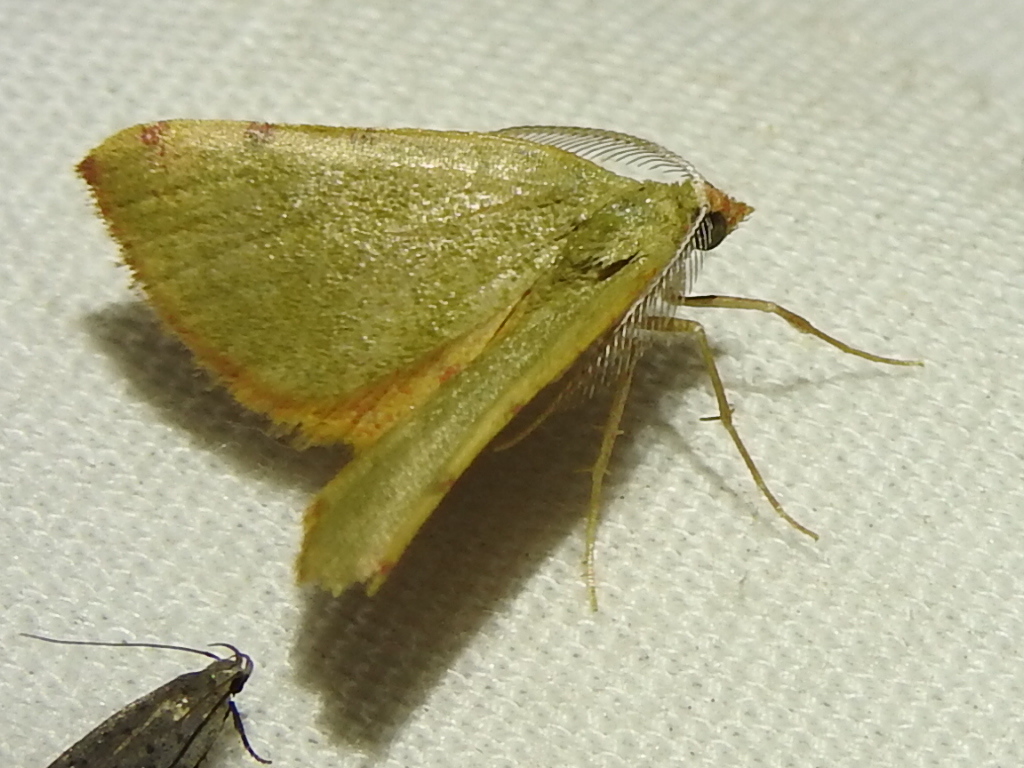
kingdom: Animalia
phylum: Arthropoda
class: Insecta
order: Lepidoptera
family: Geometridae
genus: Chloraspilates
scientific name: Chloraspilates bicoloraria
